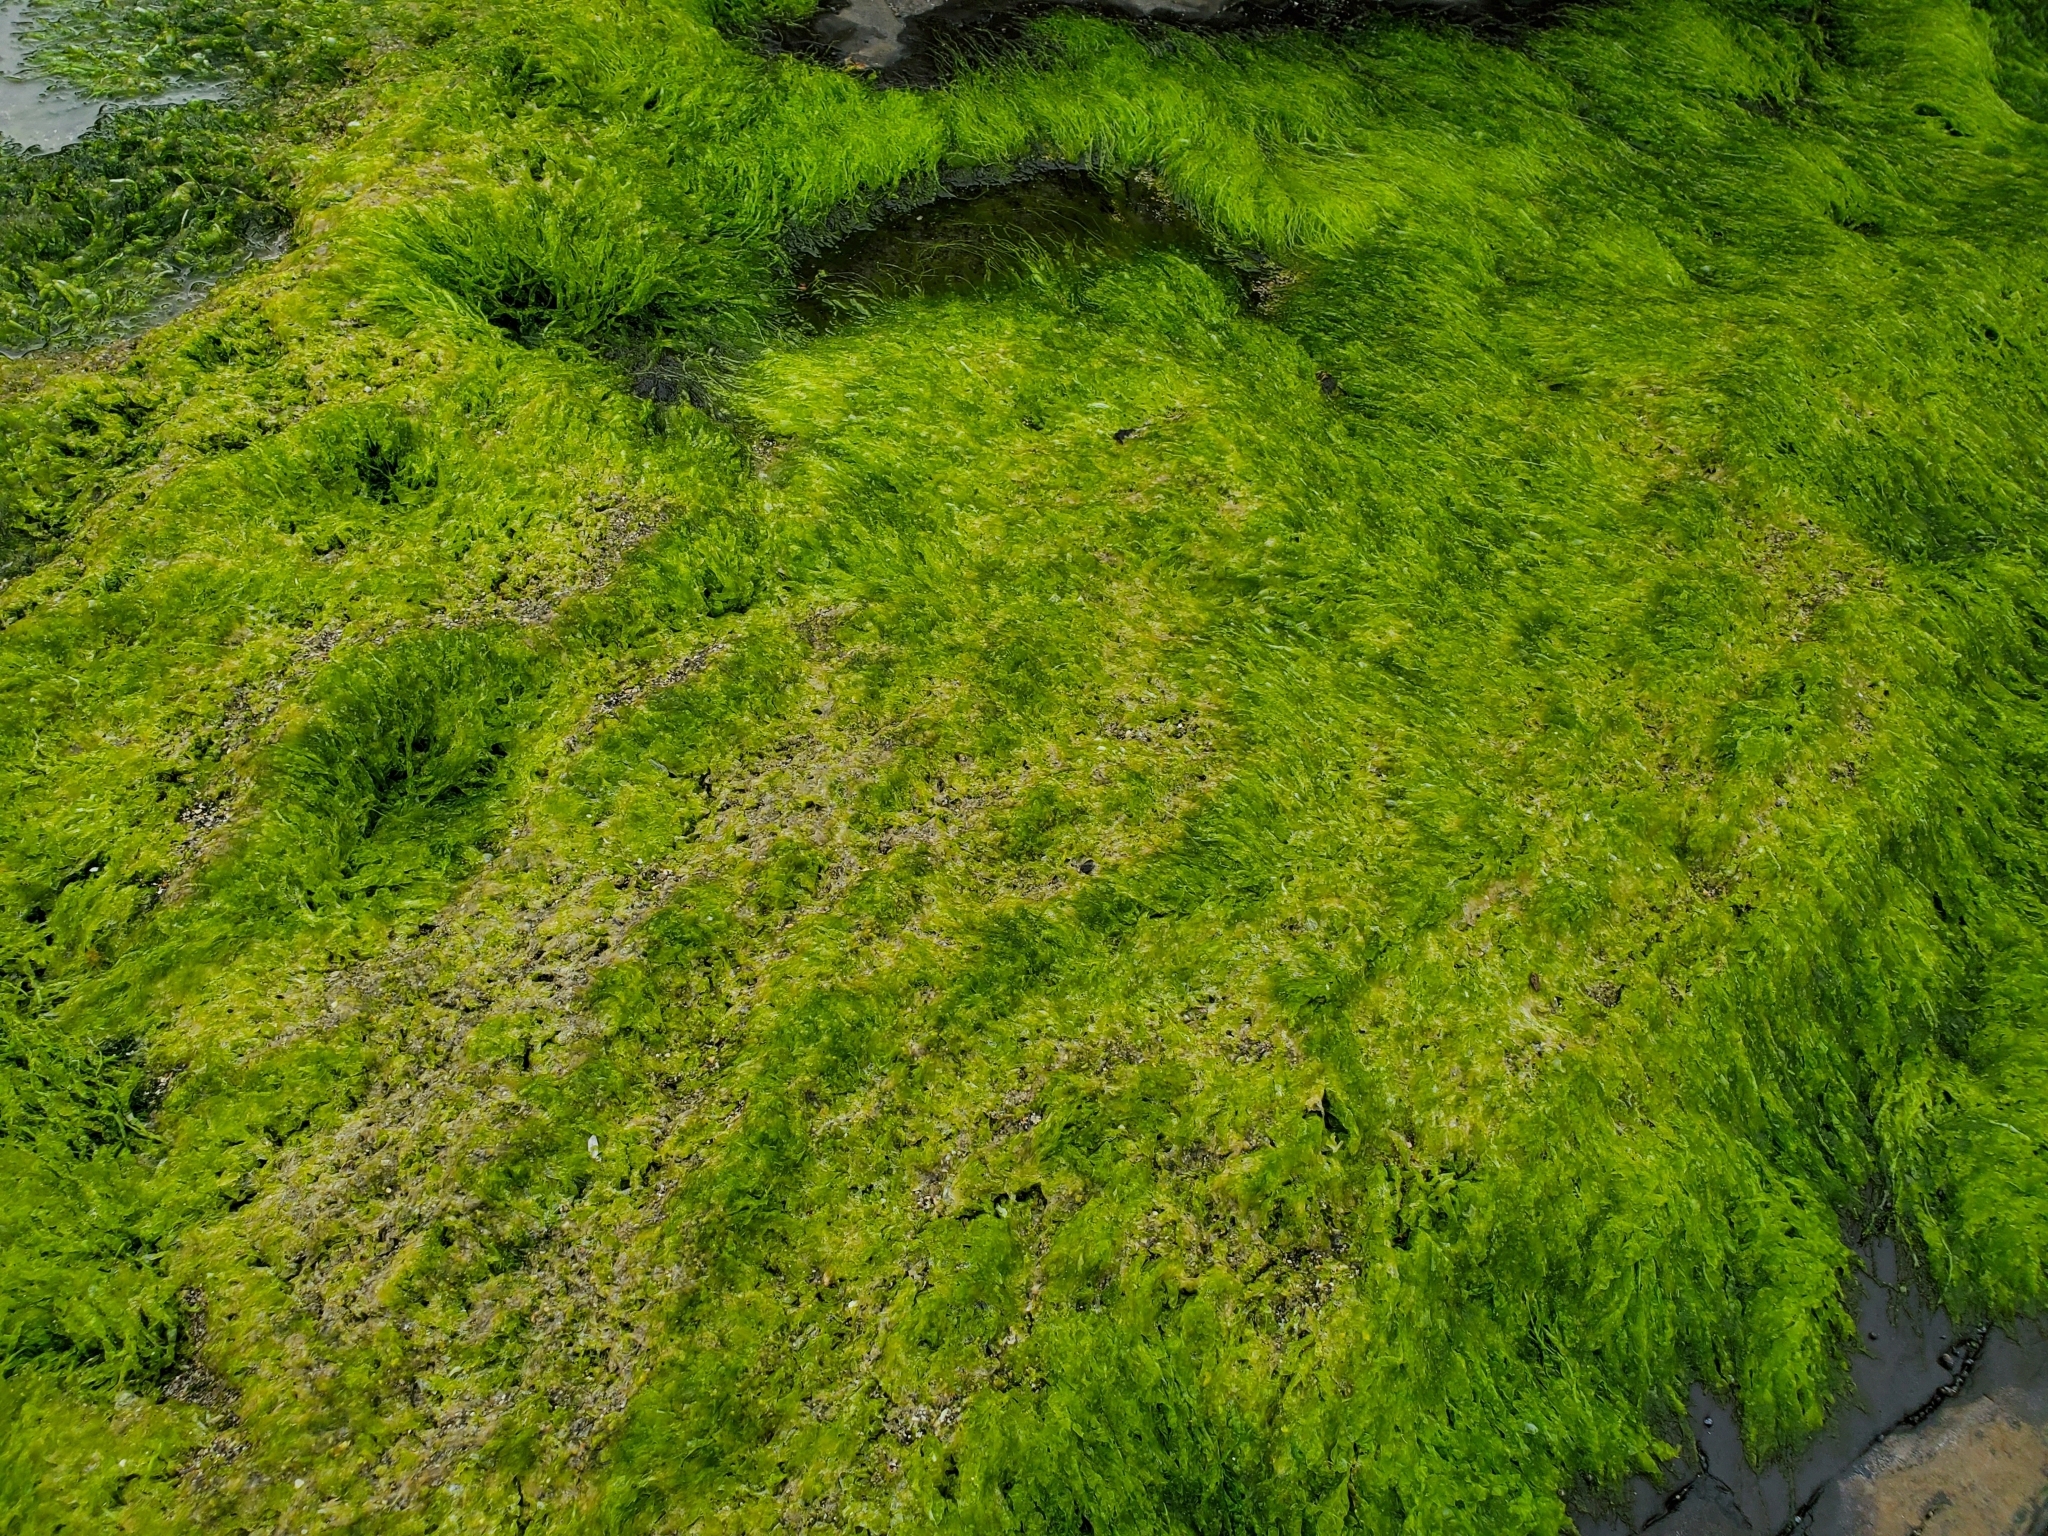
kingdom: Plantae
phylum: Chlorophyta
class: Ulvophyceae
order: Ulvales
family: Ulvaceae
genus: Ulva
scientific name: Ulva intestinalis
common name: Gut weed
